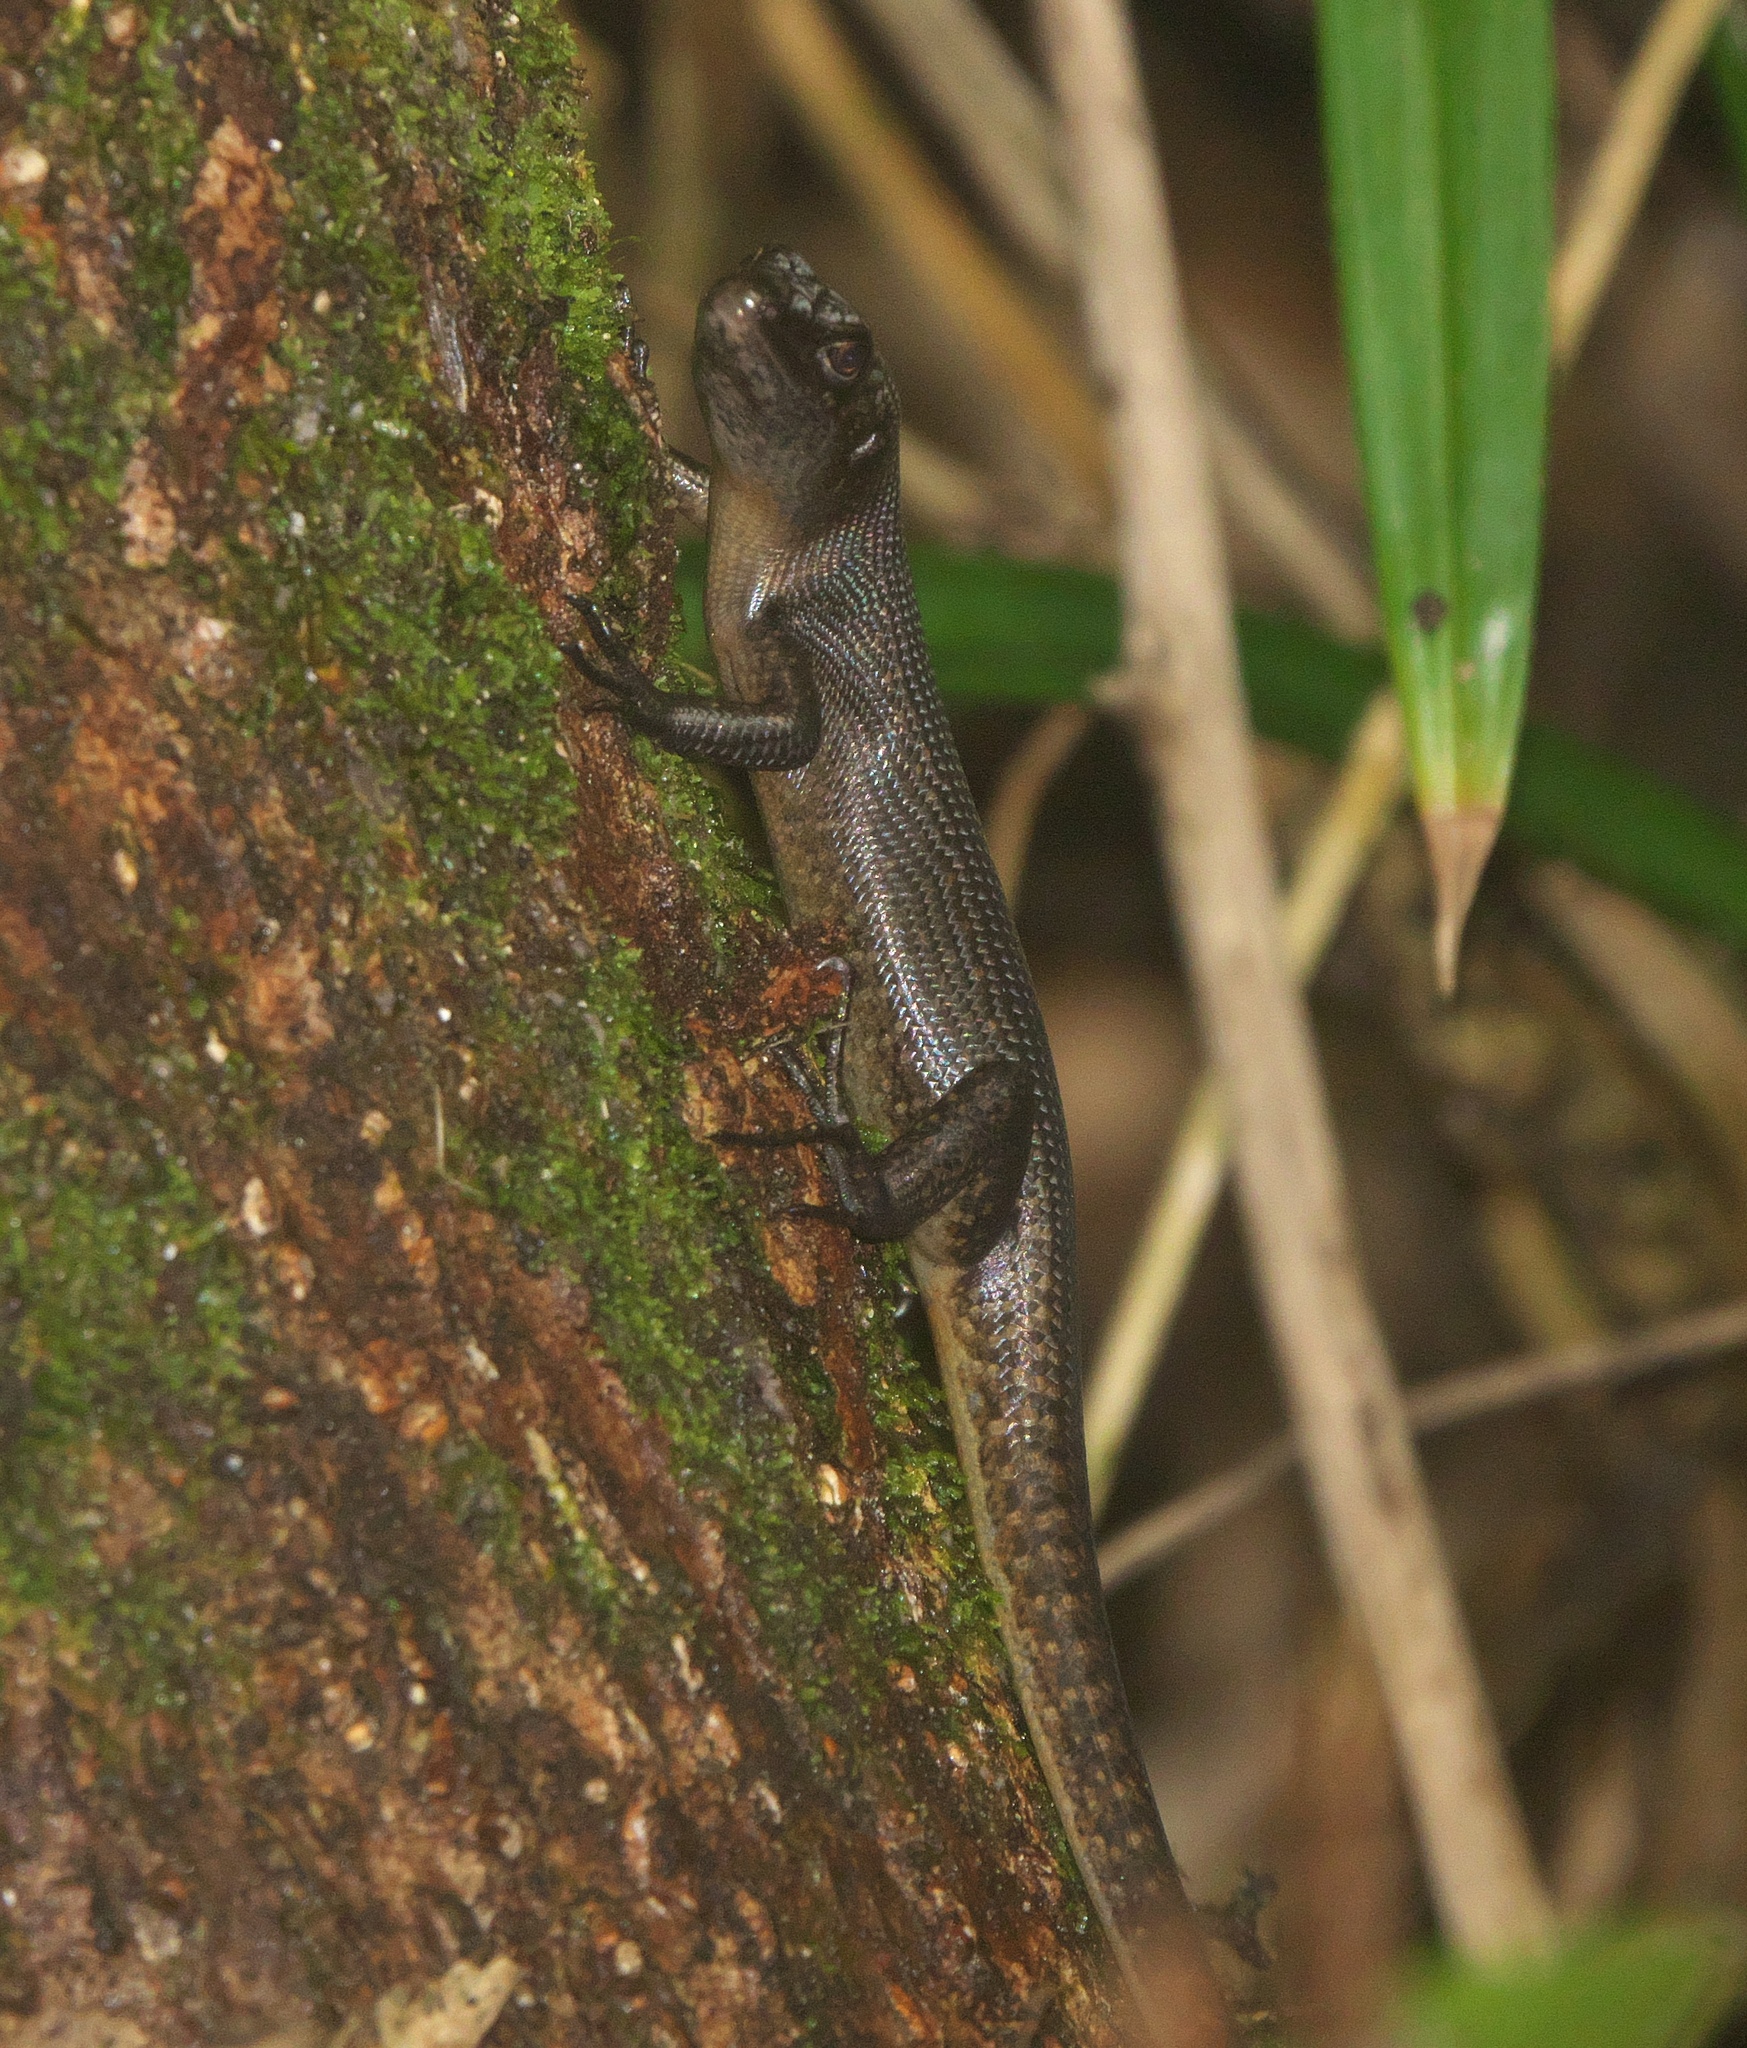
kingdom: Animalia
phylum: Chordata
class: Squamata
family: Scincidae
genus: Emoia
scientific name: Emoia nigra
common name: Black emo skink
